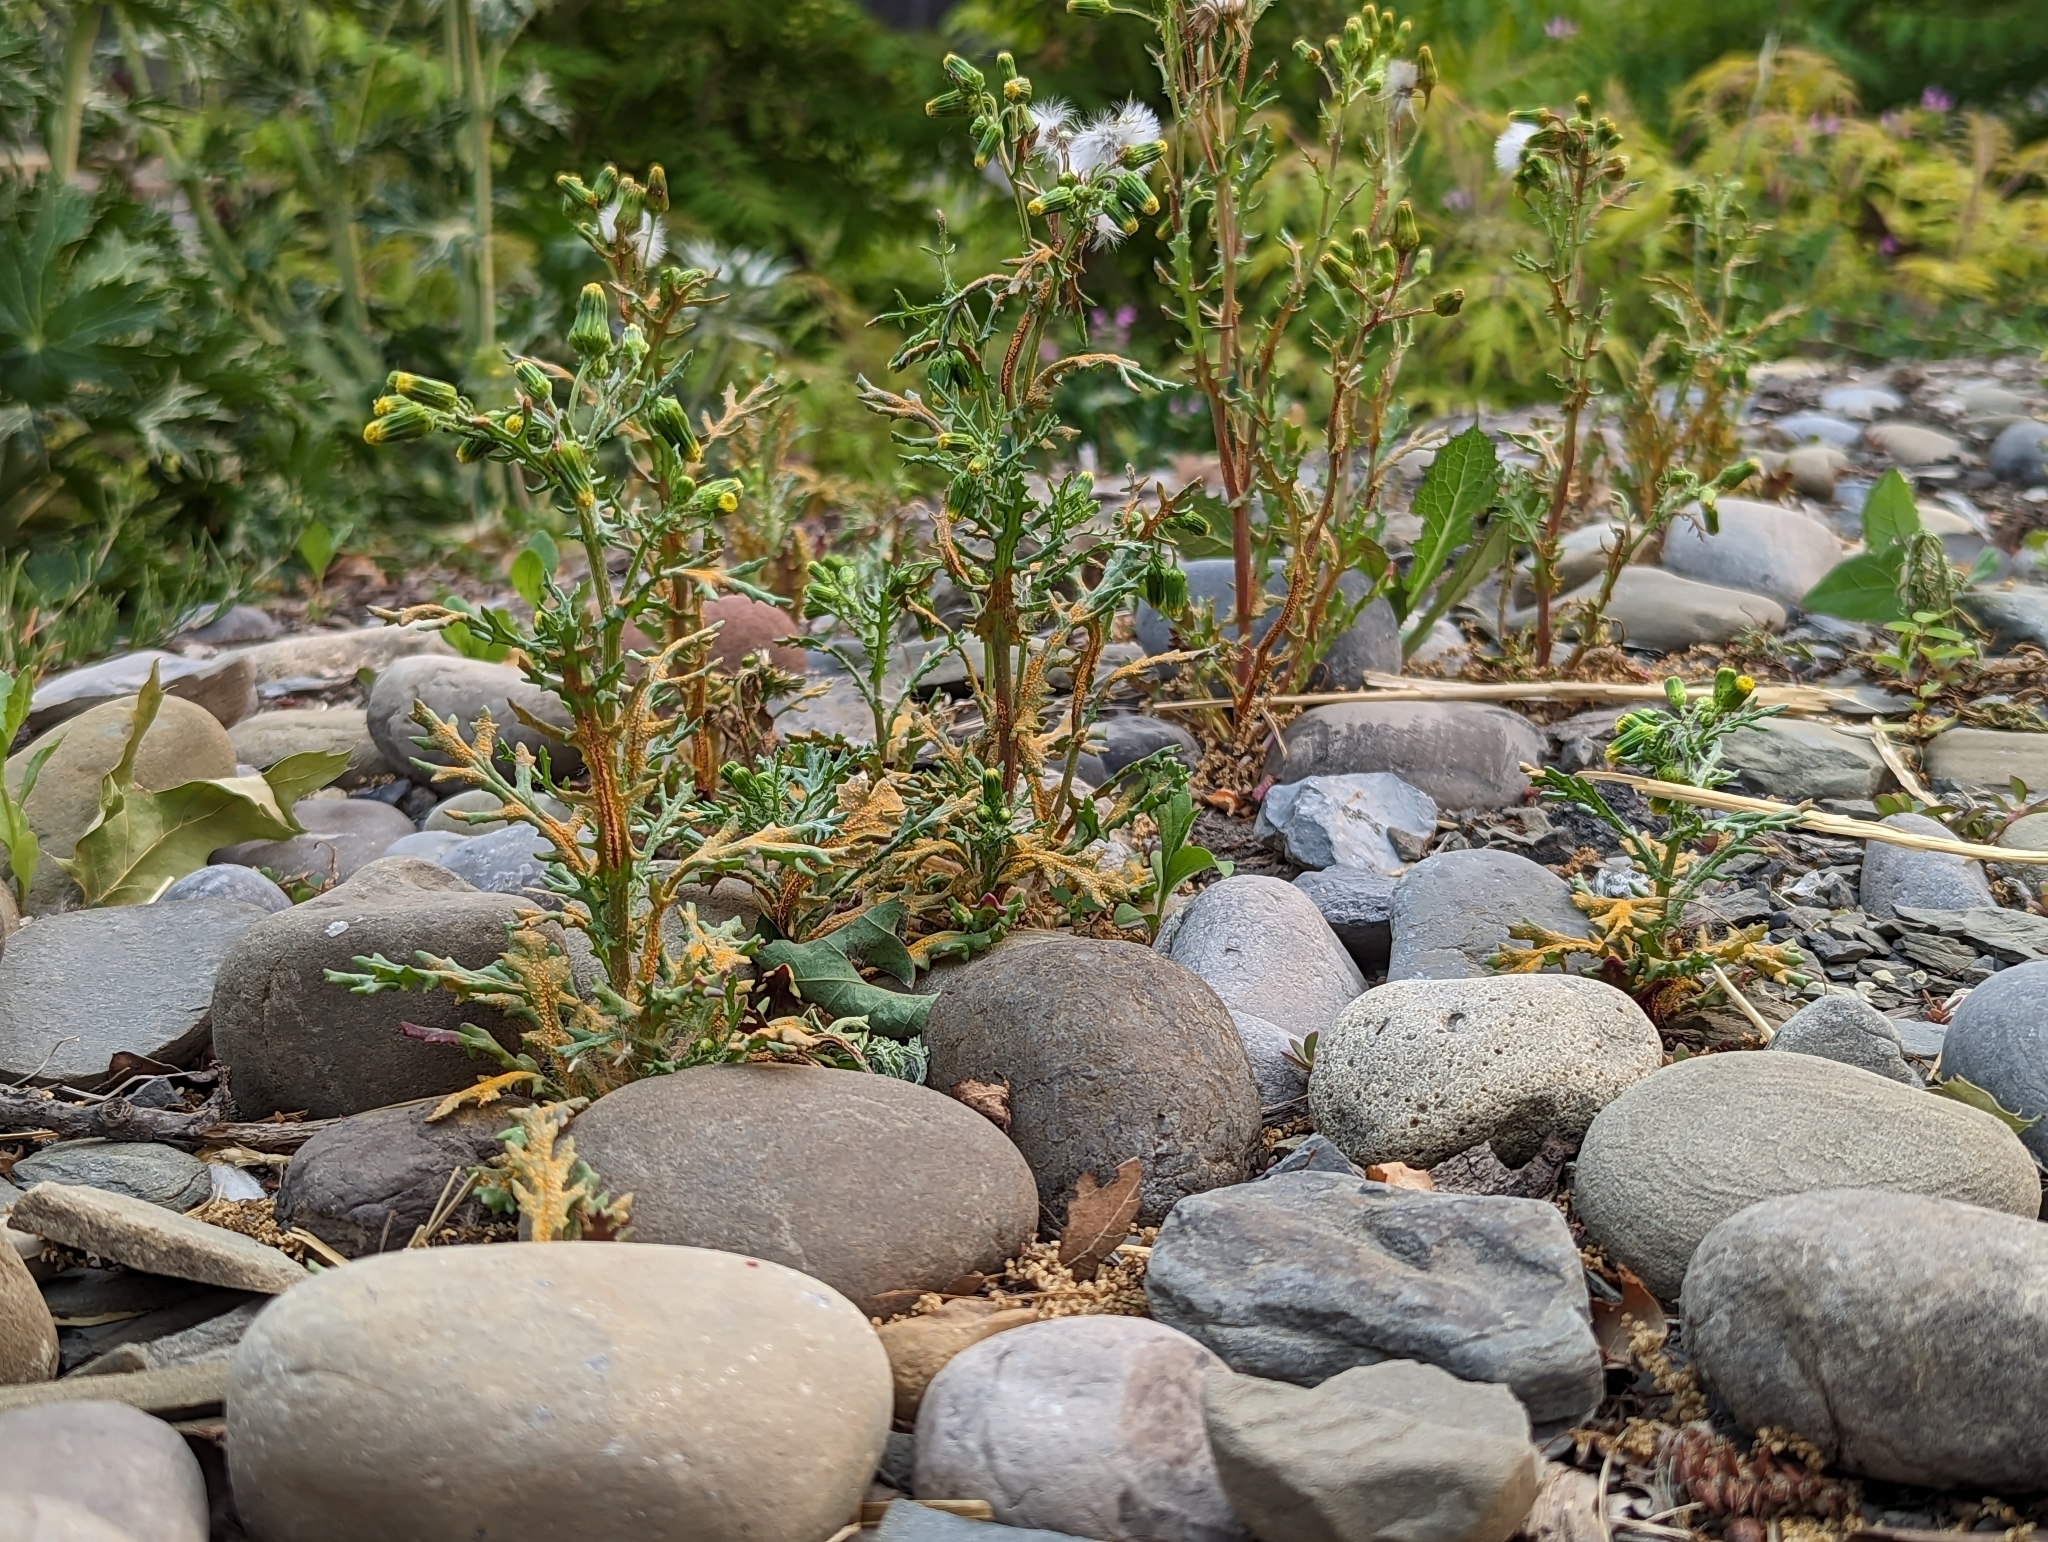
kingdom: Fungi
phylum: Basidiomycota
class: Pucciniomycetes
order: Pucciniales
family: Pucciniaceae
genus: Puccinia
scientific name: Puccinia lagenophorae
